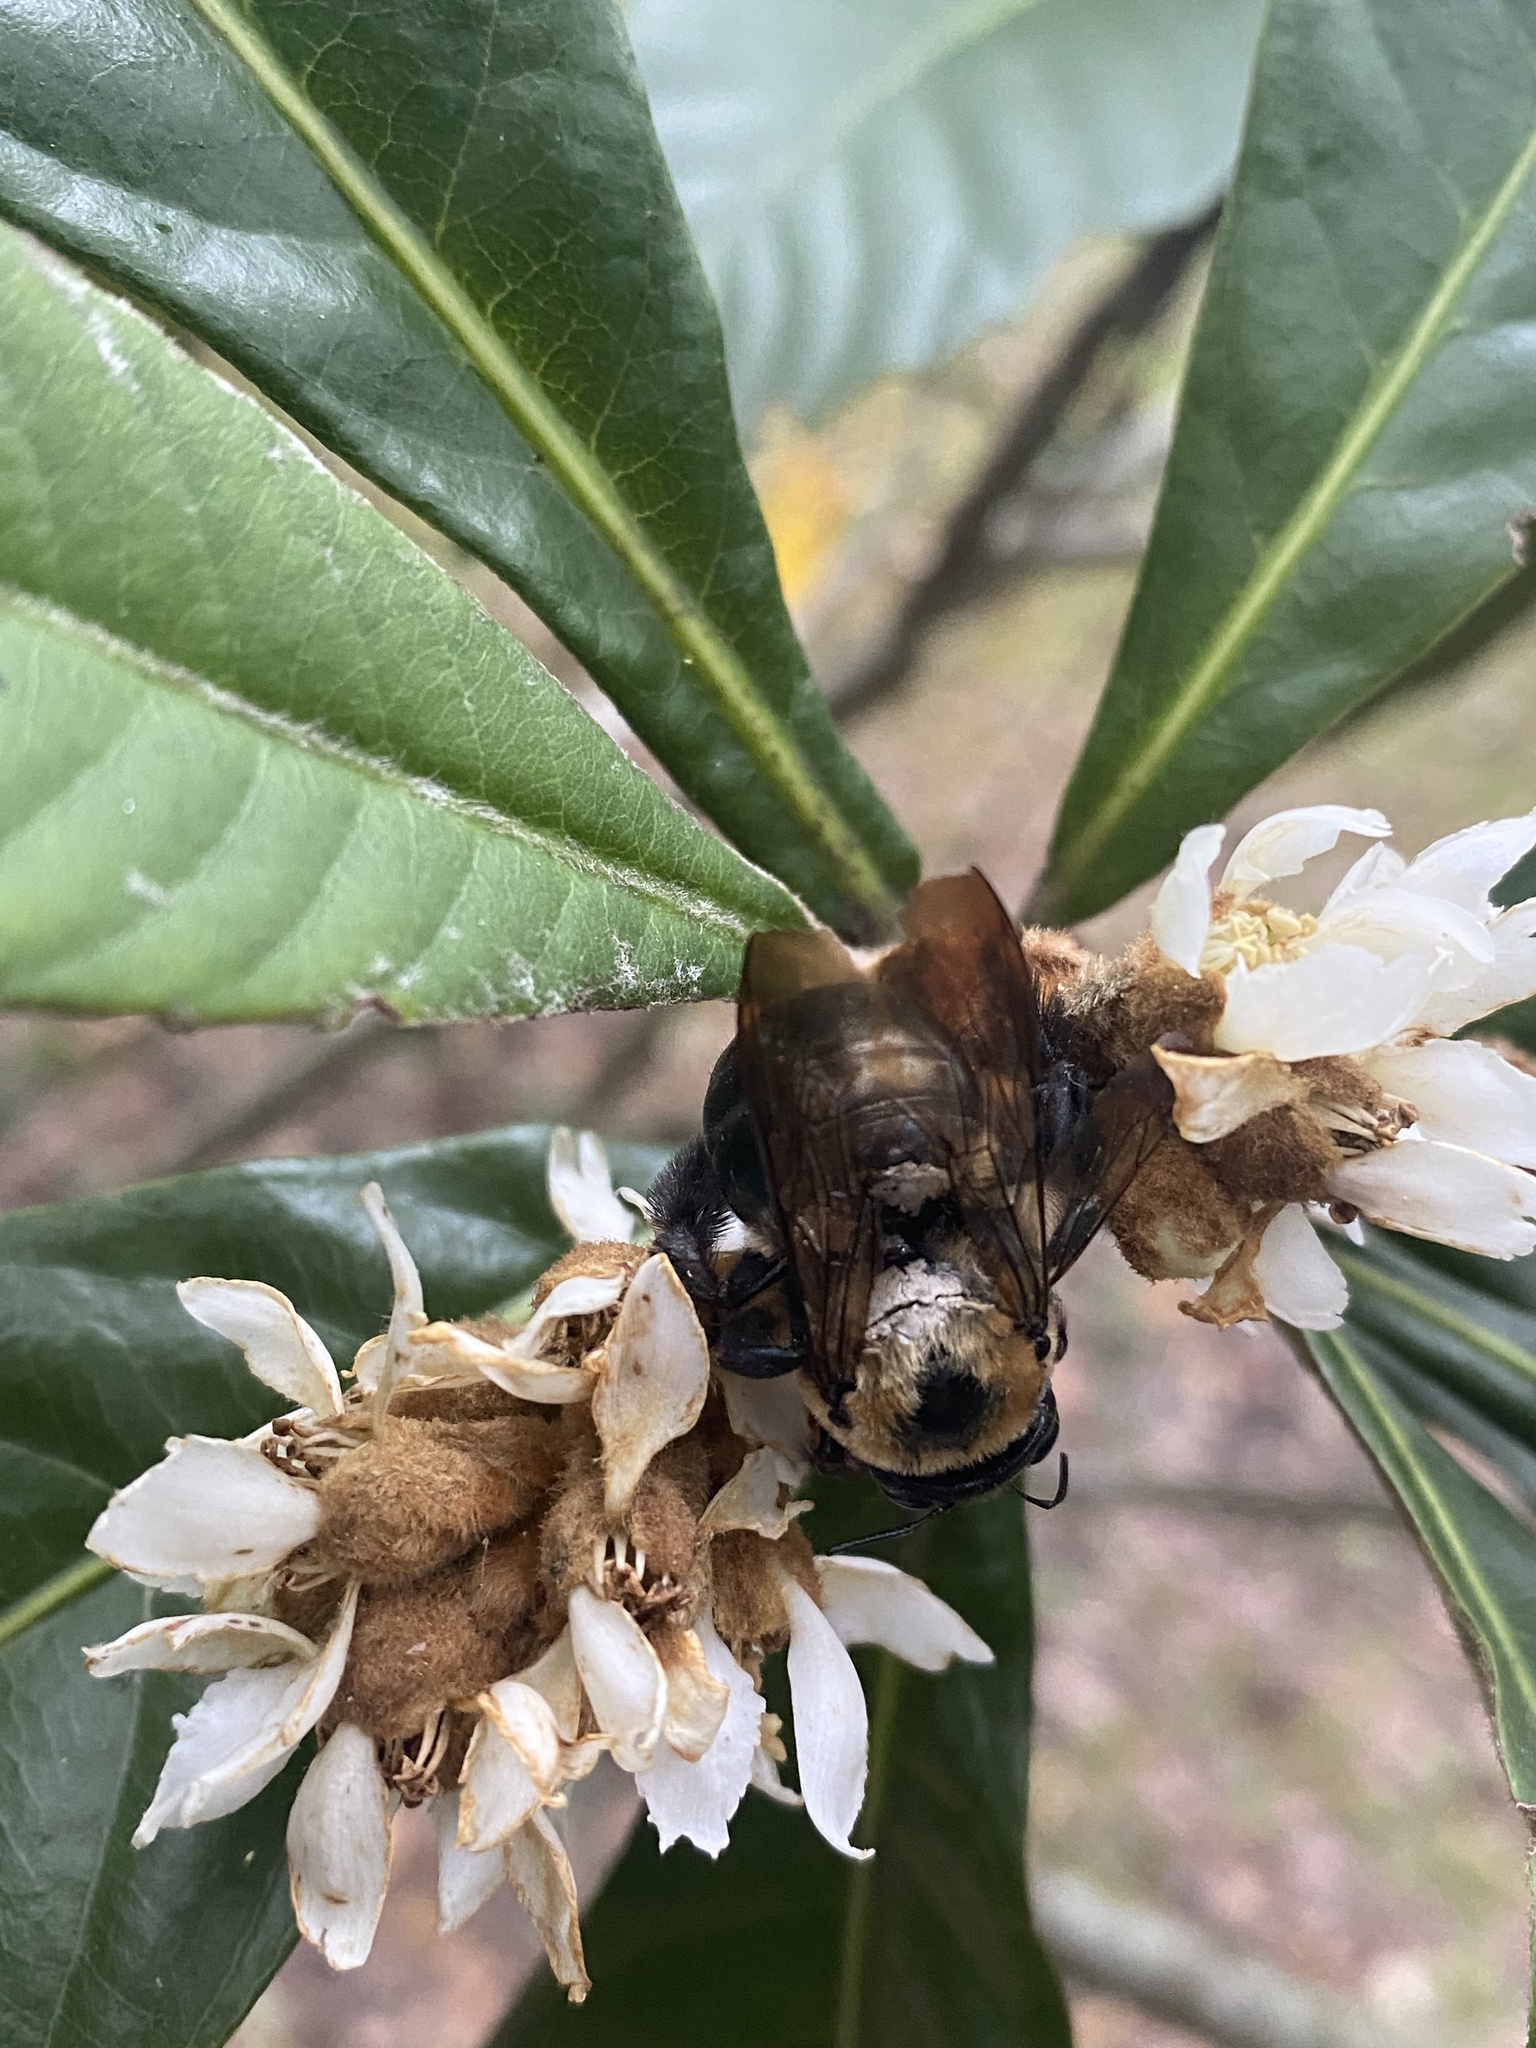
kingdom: Animalia
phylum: Arthropoda
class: Insecta
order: Hymenoptera
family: Apidae
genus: Xylocopa
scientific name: Xylocopa virginica
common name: Carpenter bee
